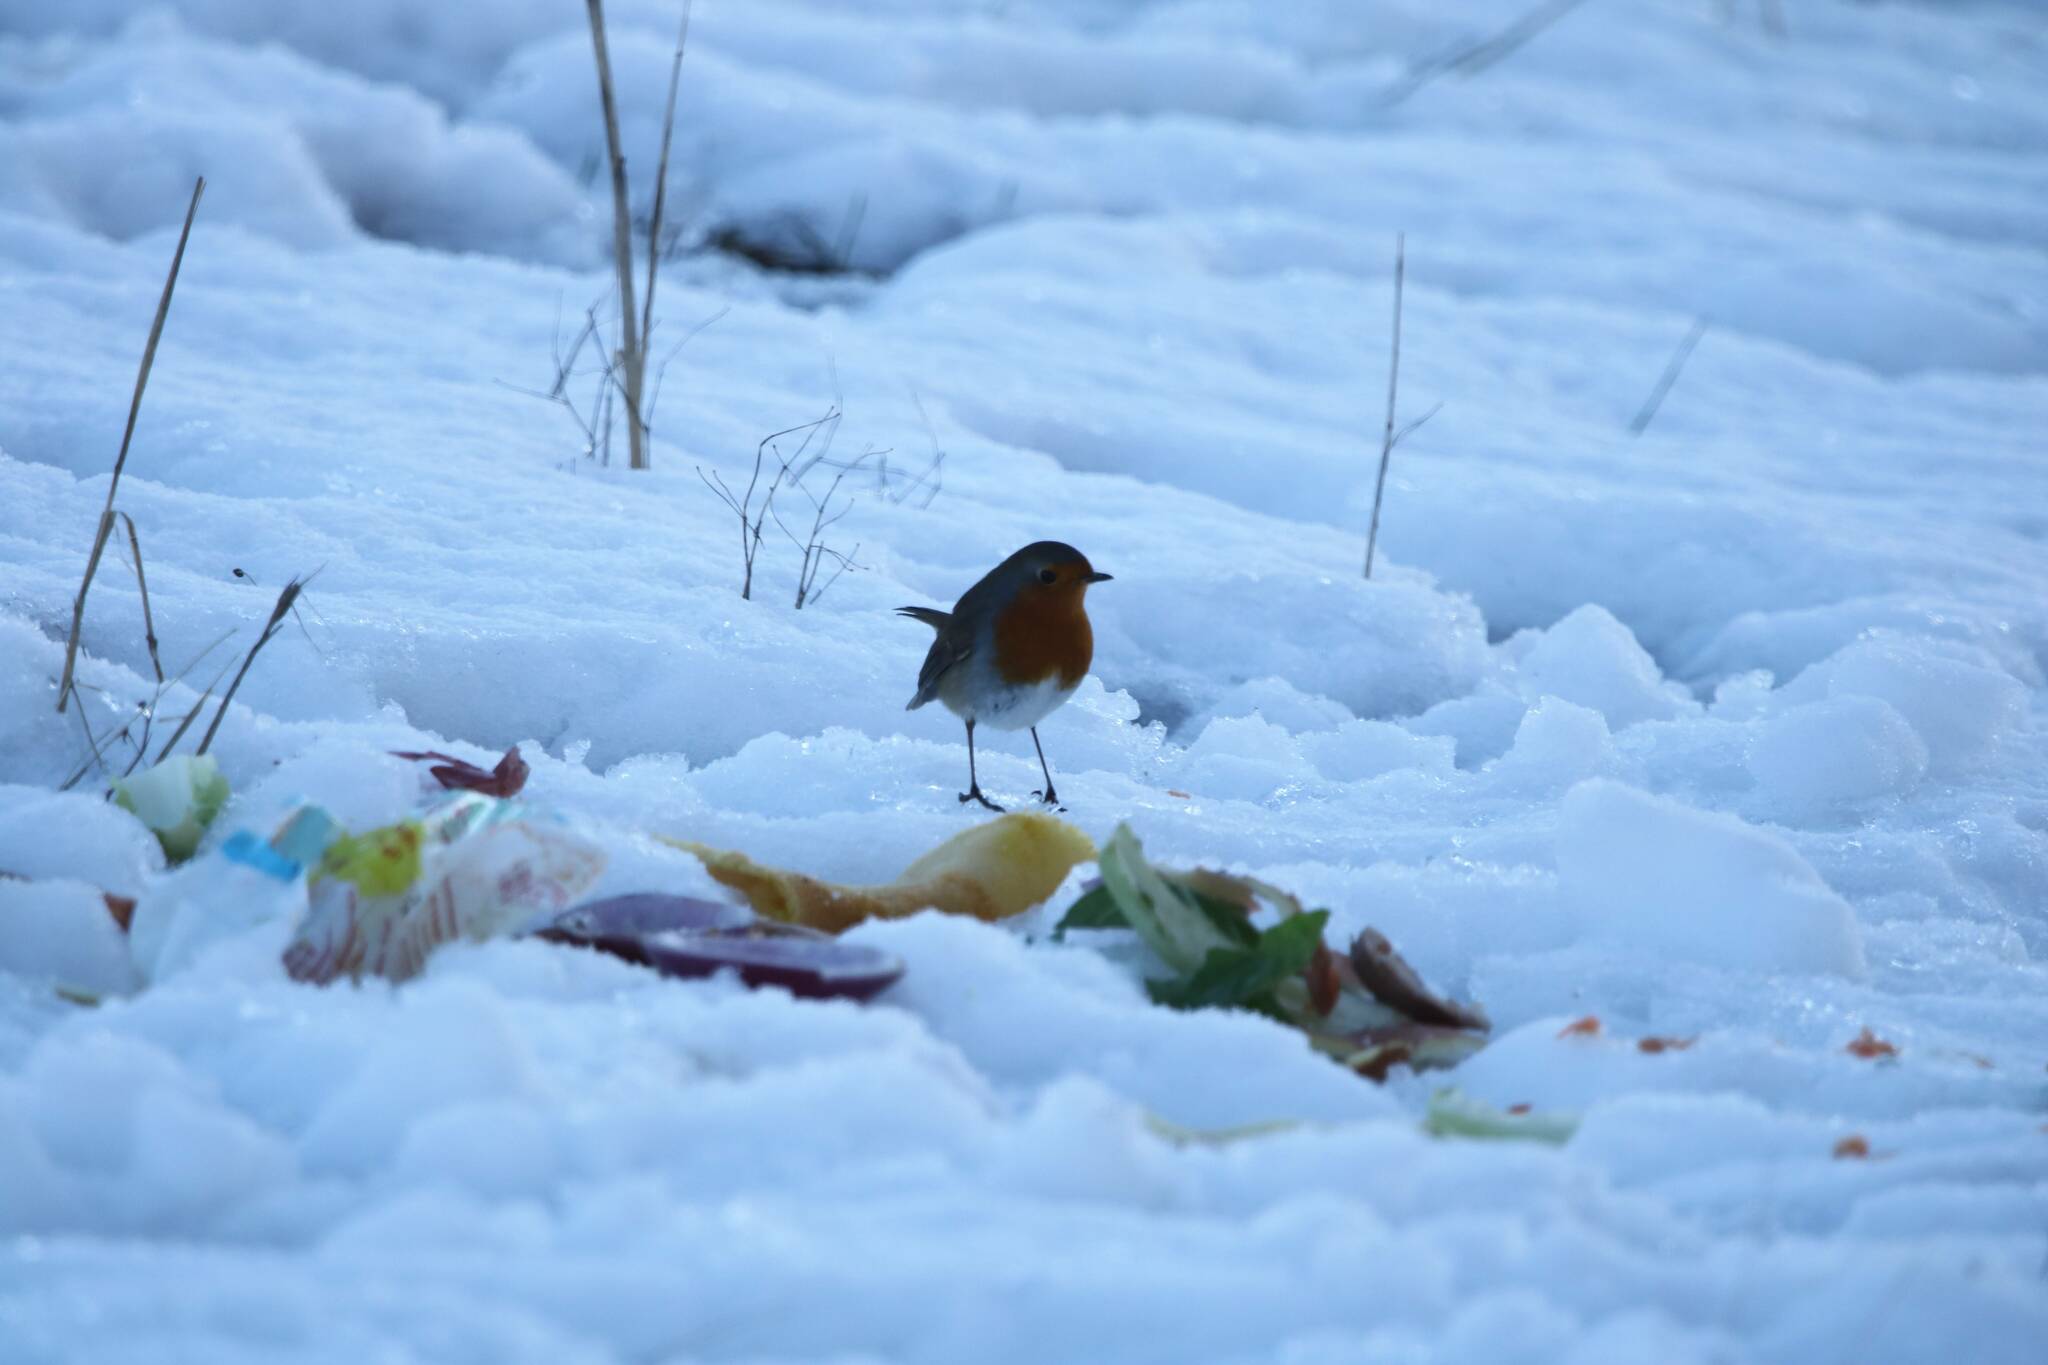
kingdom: Animalia
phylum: Chordata
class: Aves
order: Passeriformes
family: Muscicapidae
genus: Erithacus
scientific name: Erithacus rubecula
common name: European robin
